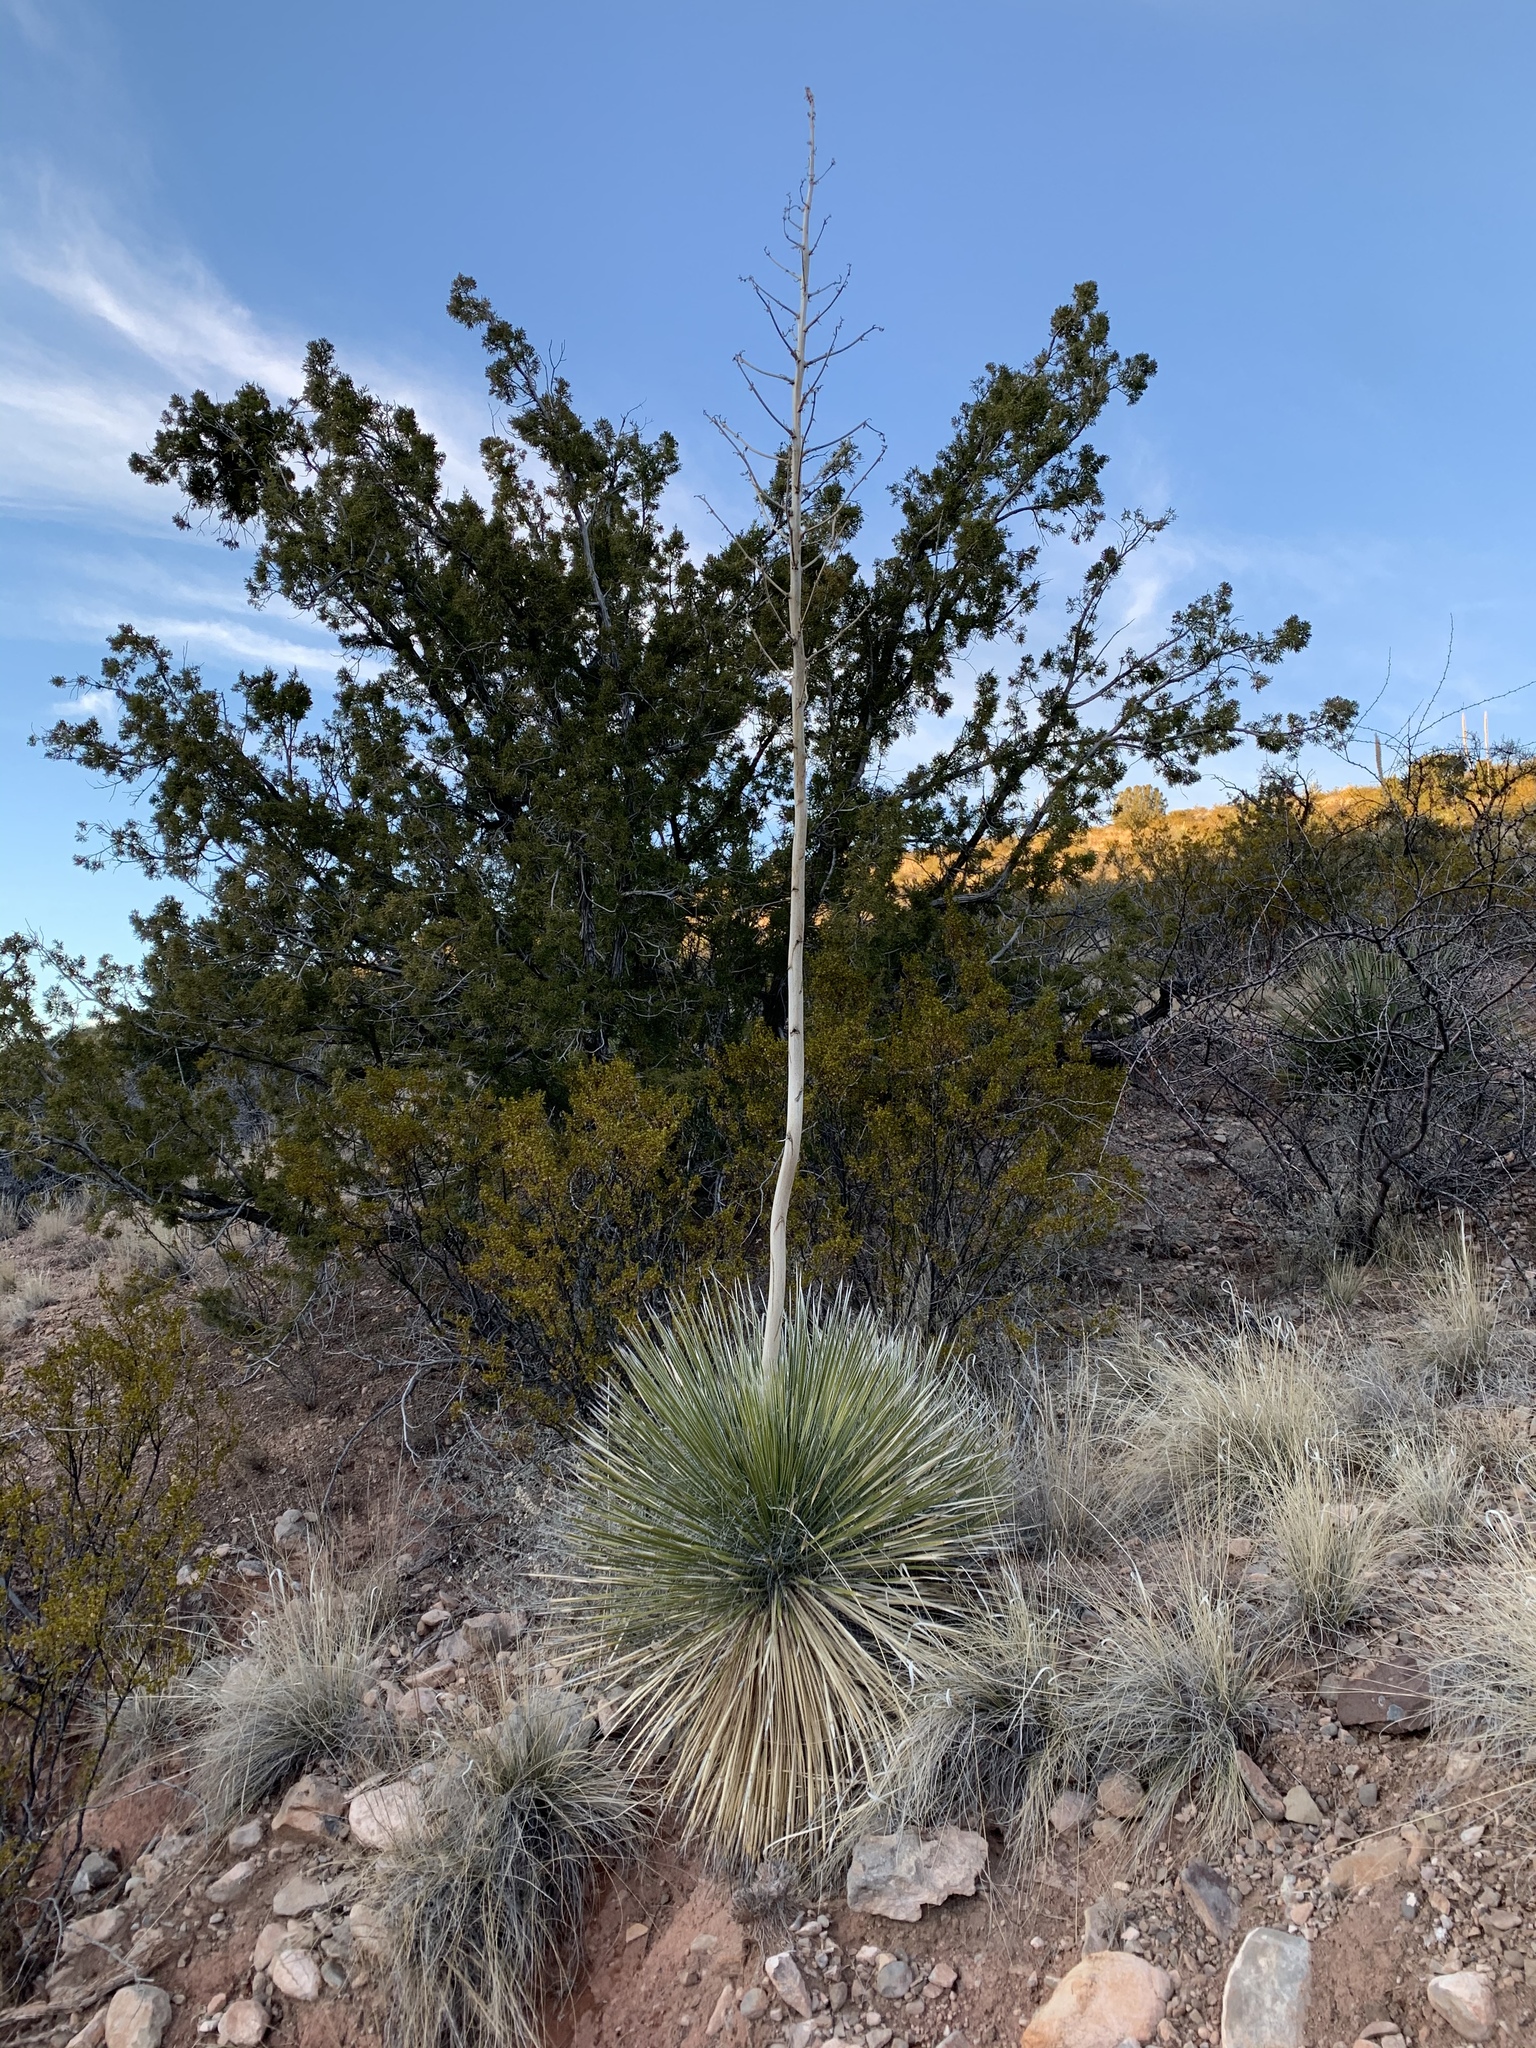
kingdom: Plantae
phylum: Tracheophyta
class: Liliopsida
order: Asparagales
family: Asparagaceae
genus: Yucca
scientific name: Yucca elata
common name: Palmella
